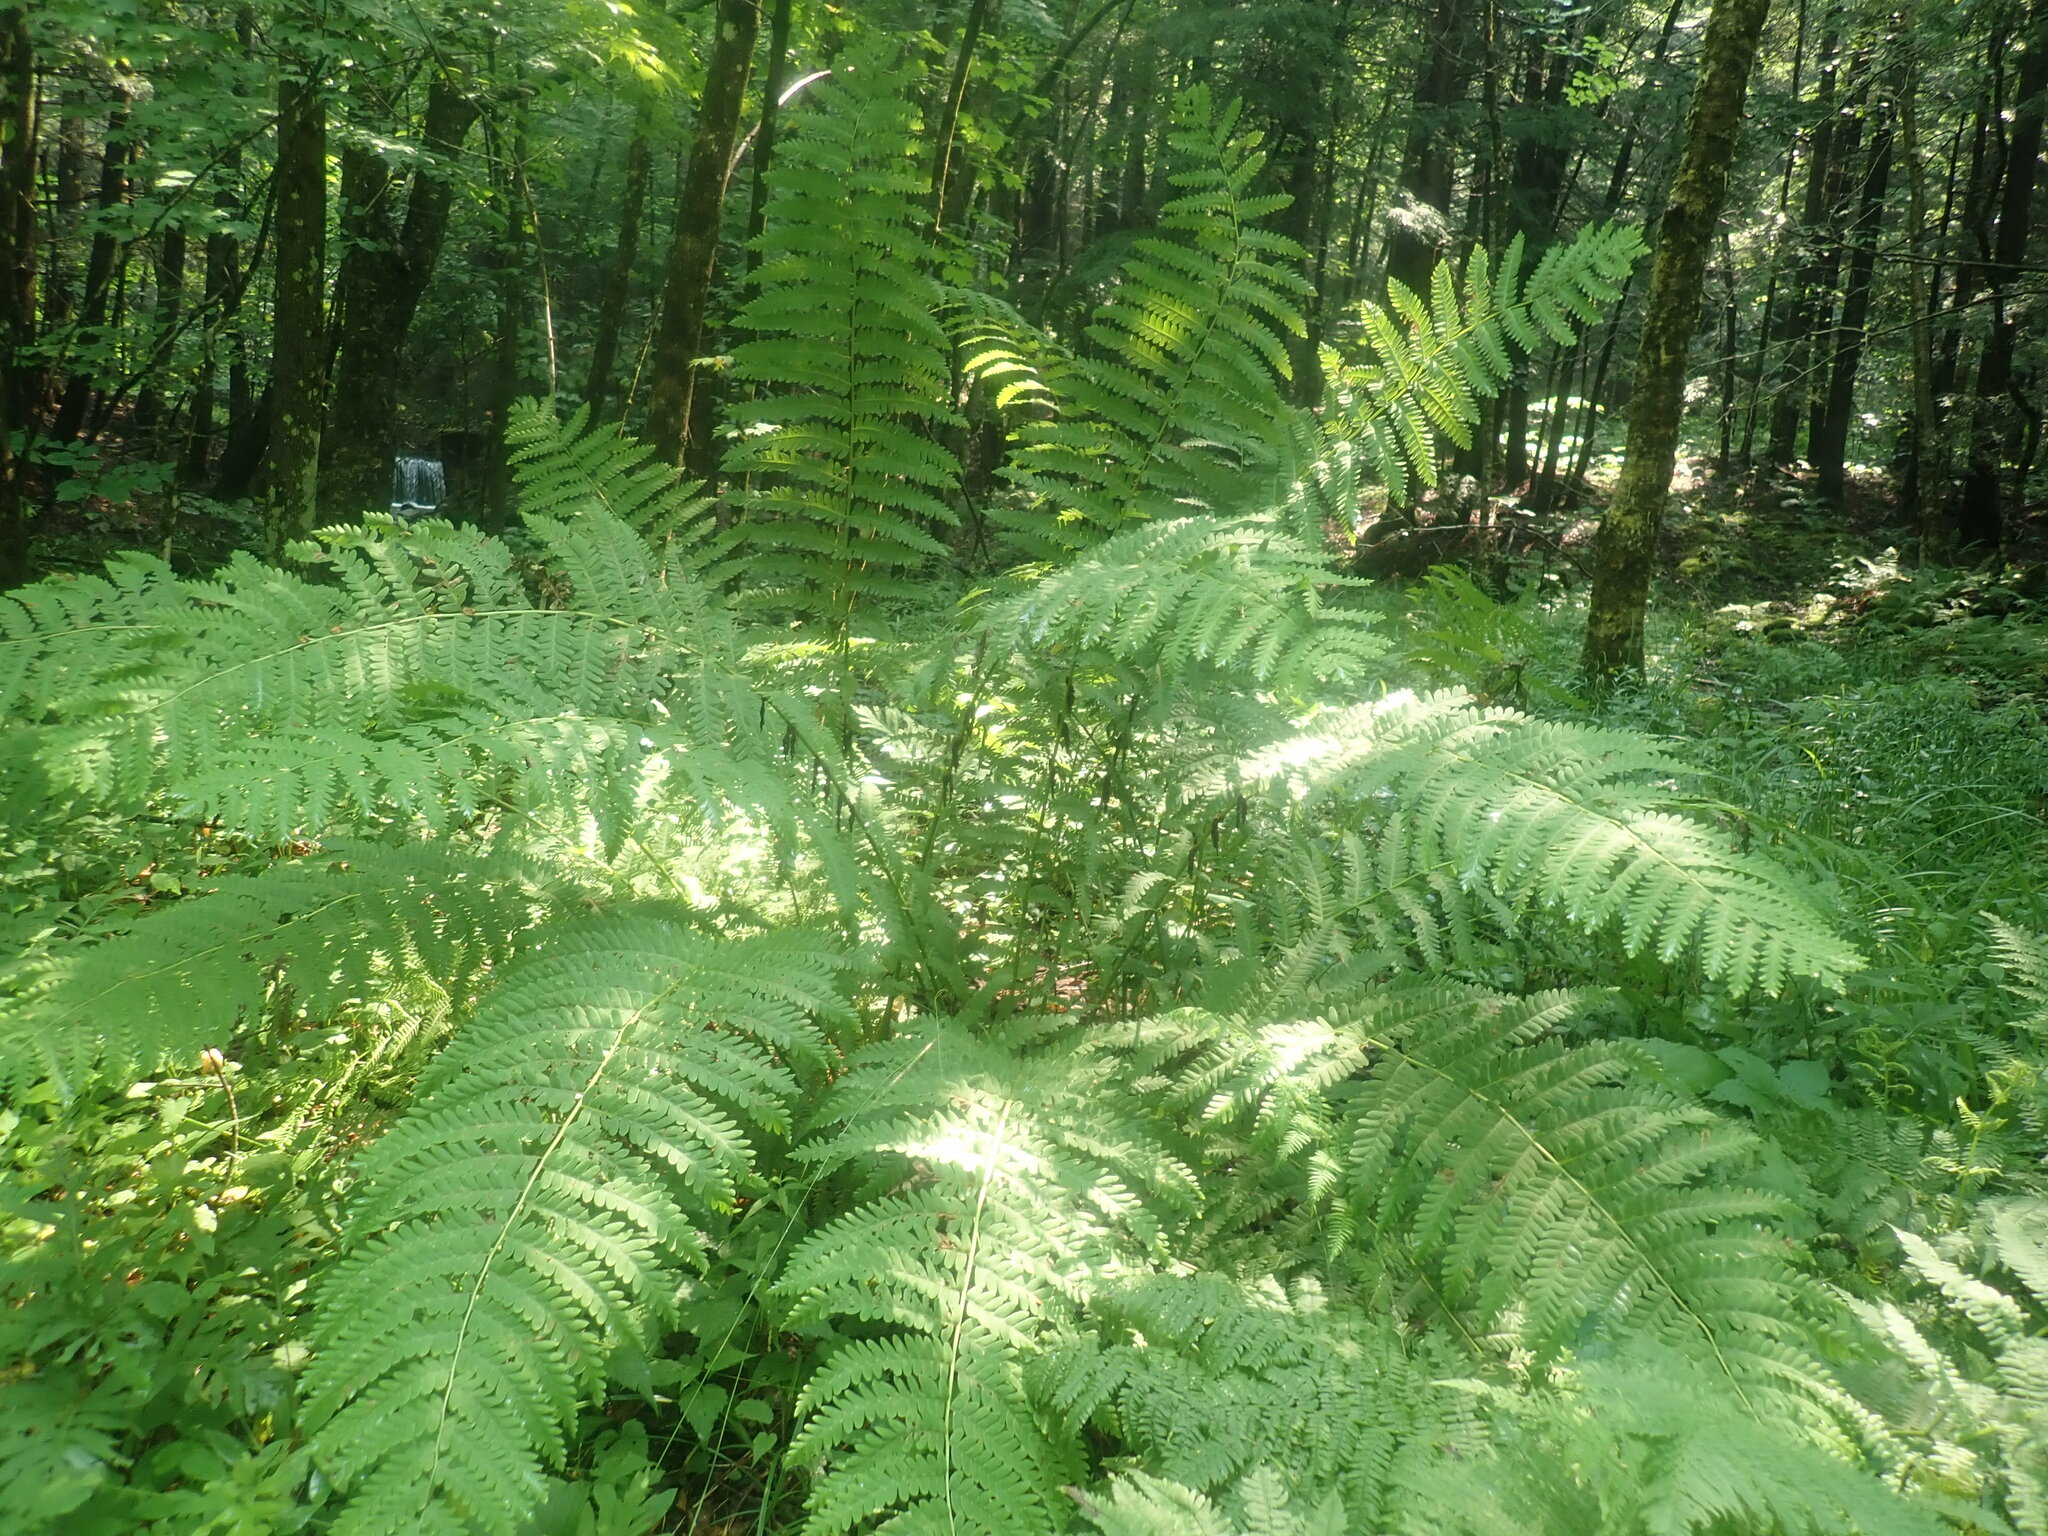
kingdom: Plantae
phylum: Tracheophyta
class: Polypodiopsida
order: Osmundales
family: Osmundaceae
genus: Claytosmunda
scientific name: Claytosmunda claytoniana
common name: Clayton's fern
